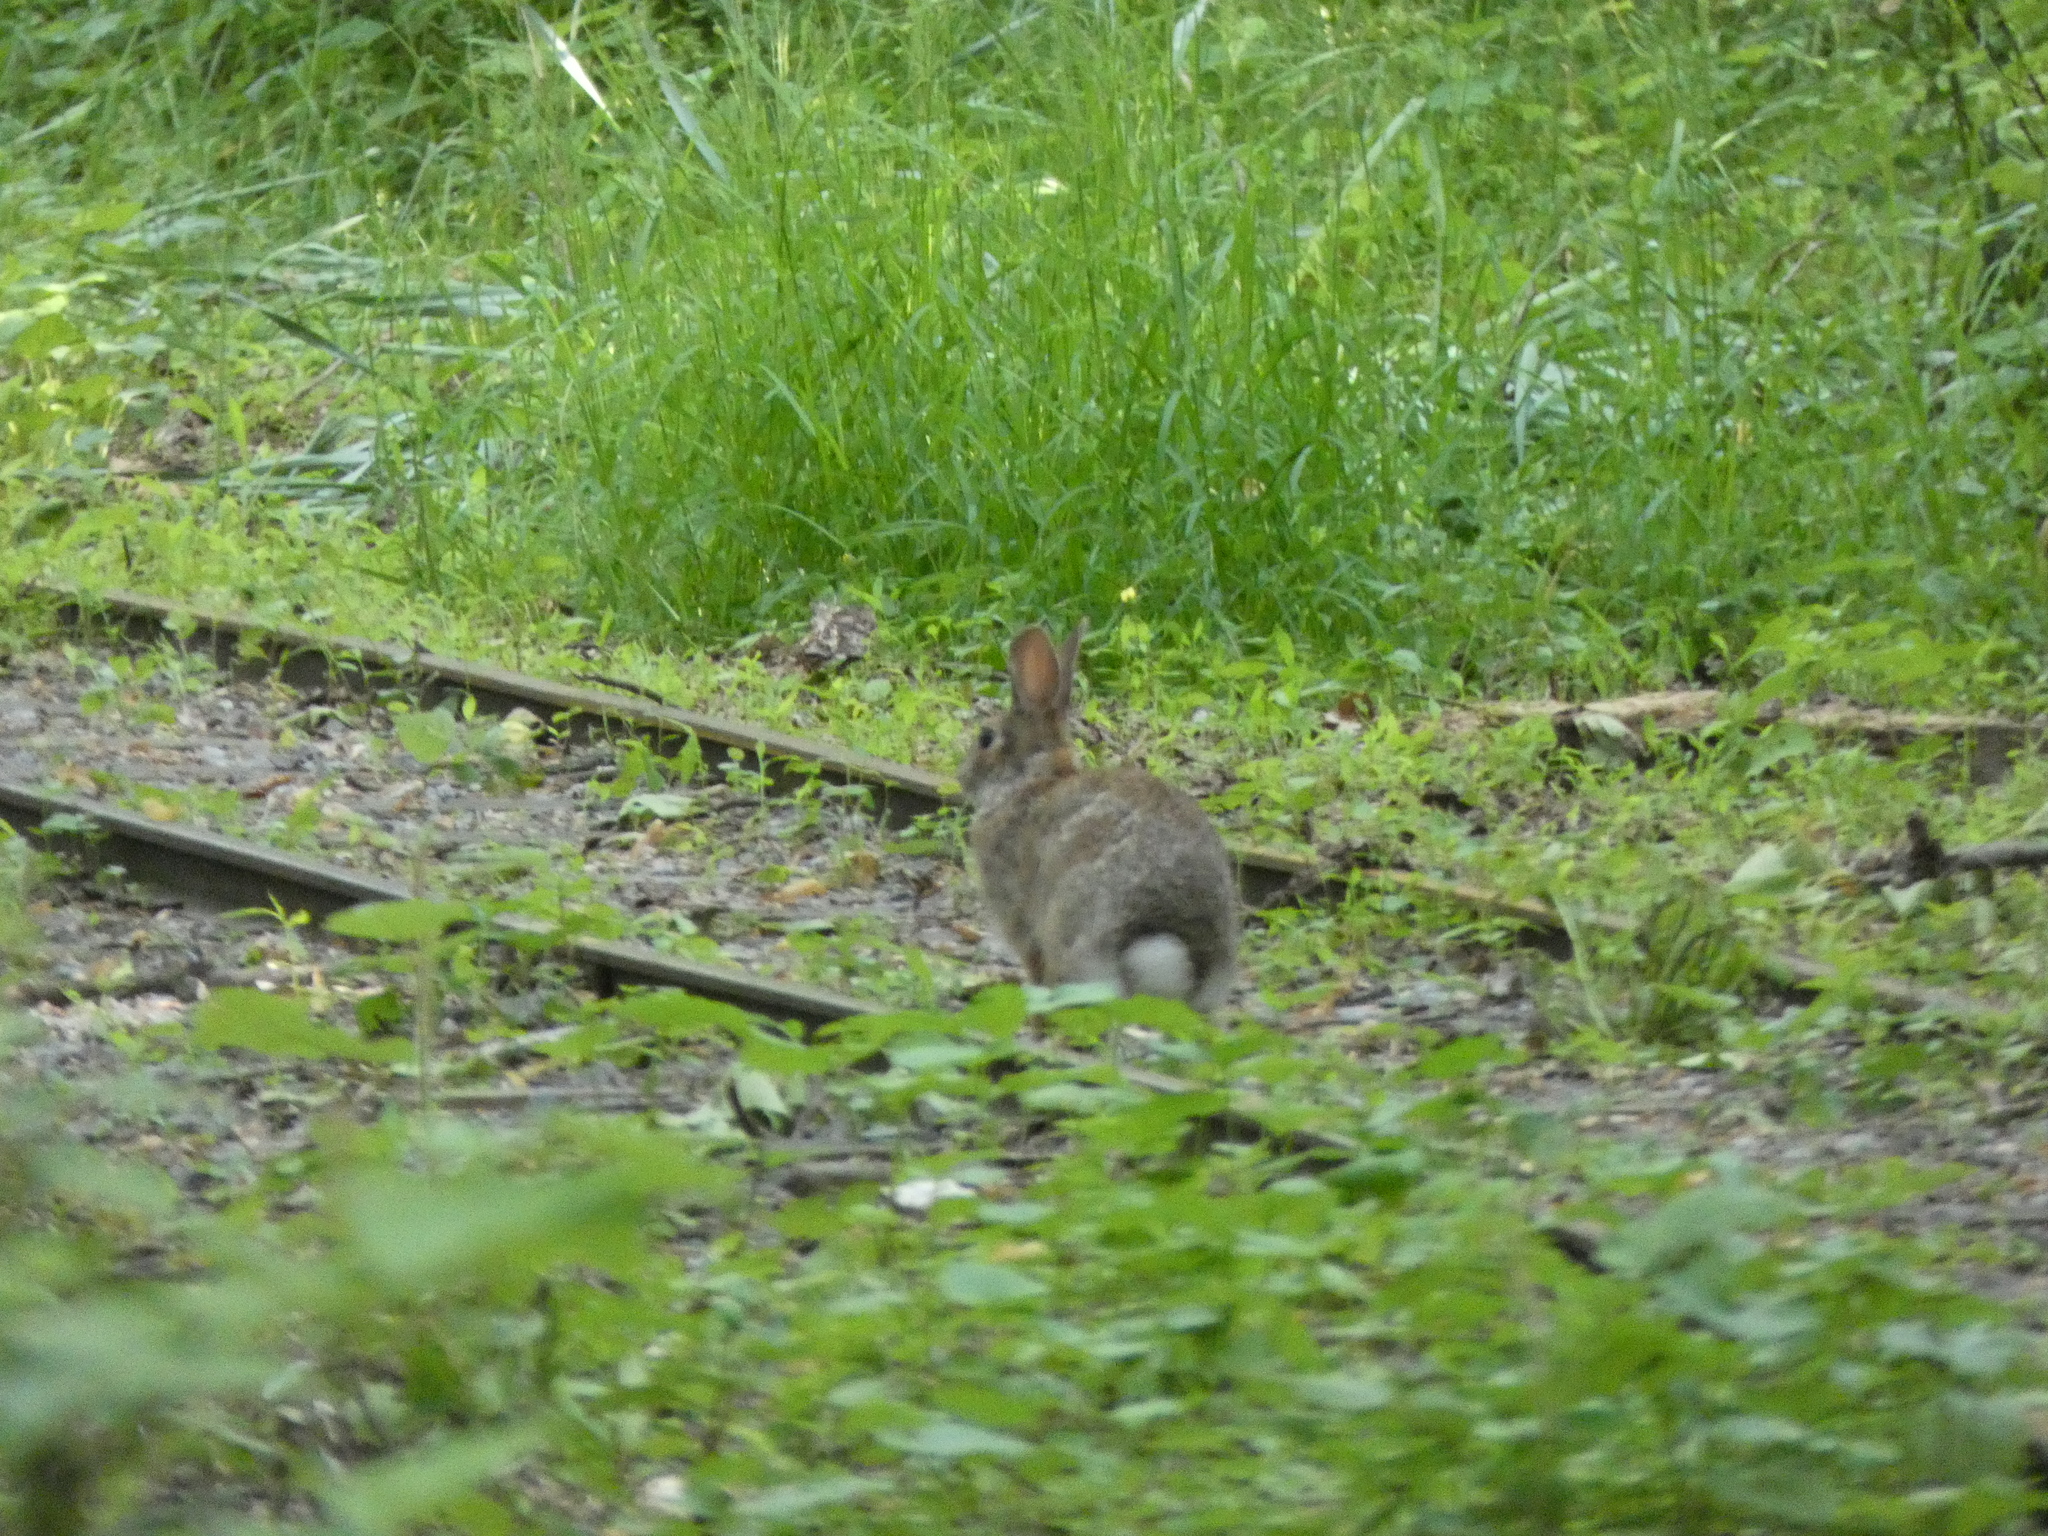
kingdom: Animalia
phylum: Chordata
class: Mammalia
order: Lagomorpha
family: Leporidae
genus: Sylvilagus
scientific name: Sylvilagus floridanus
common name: Eastern cottontail
